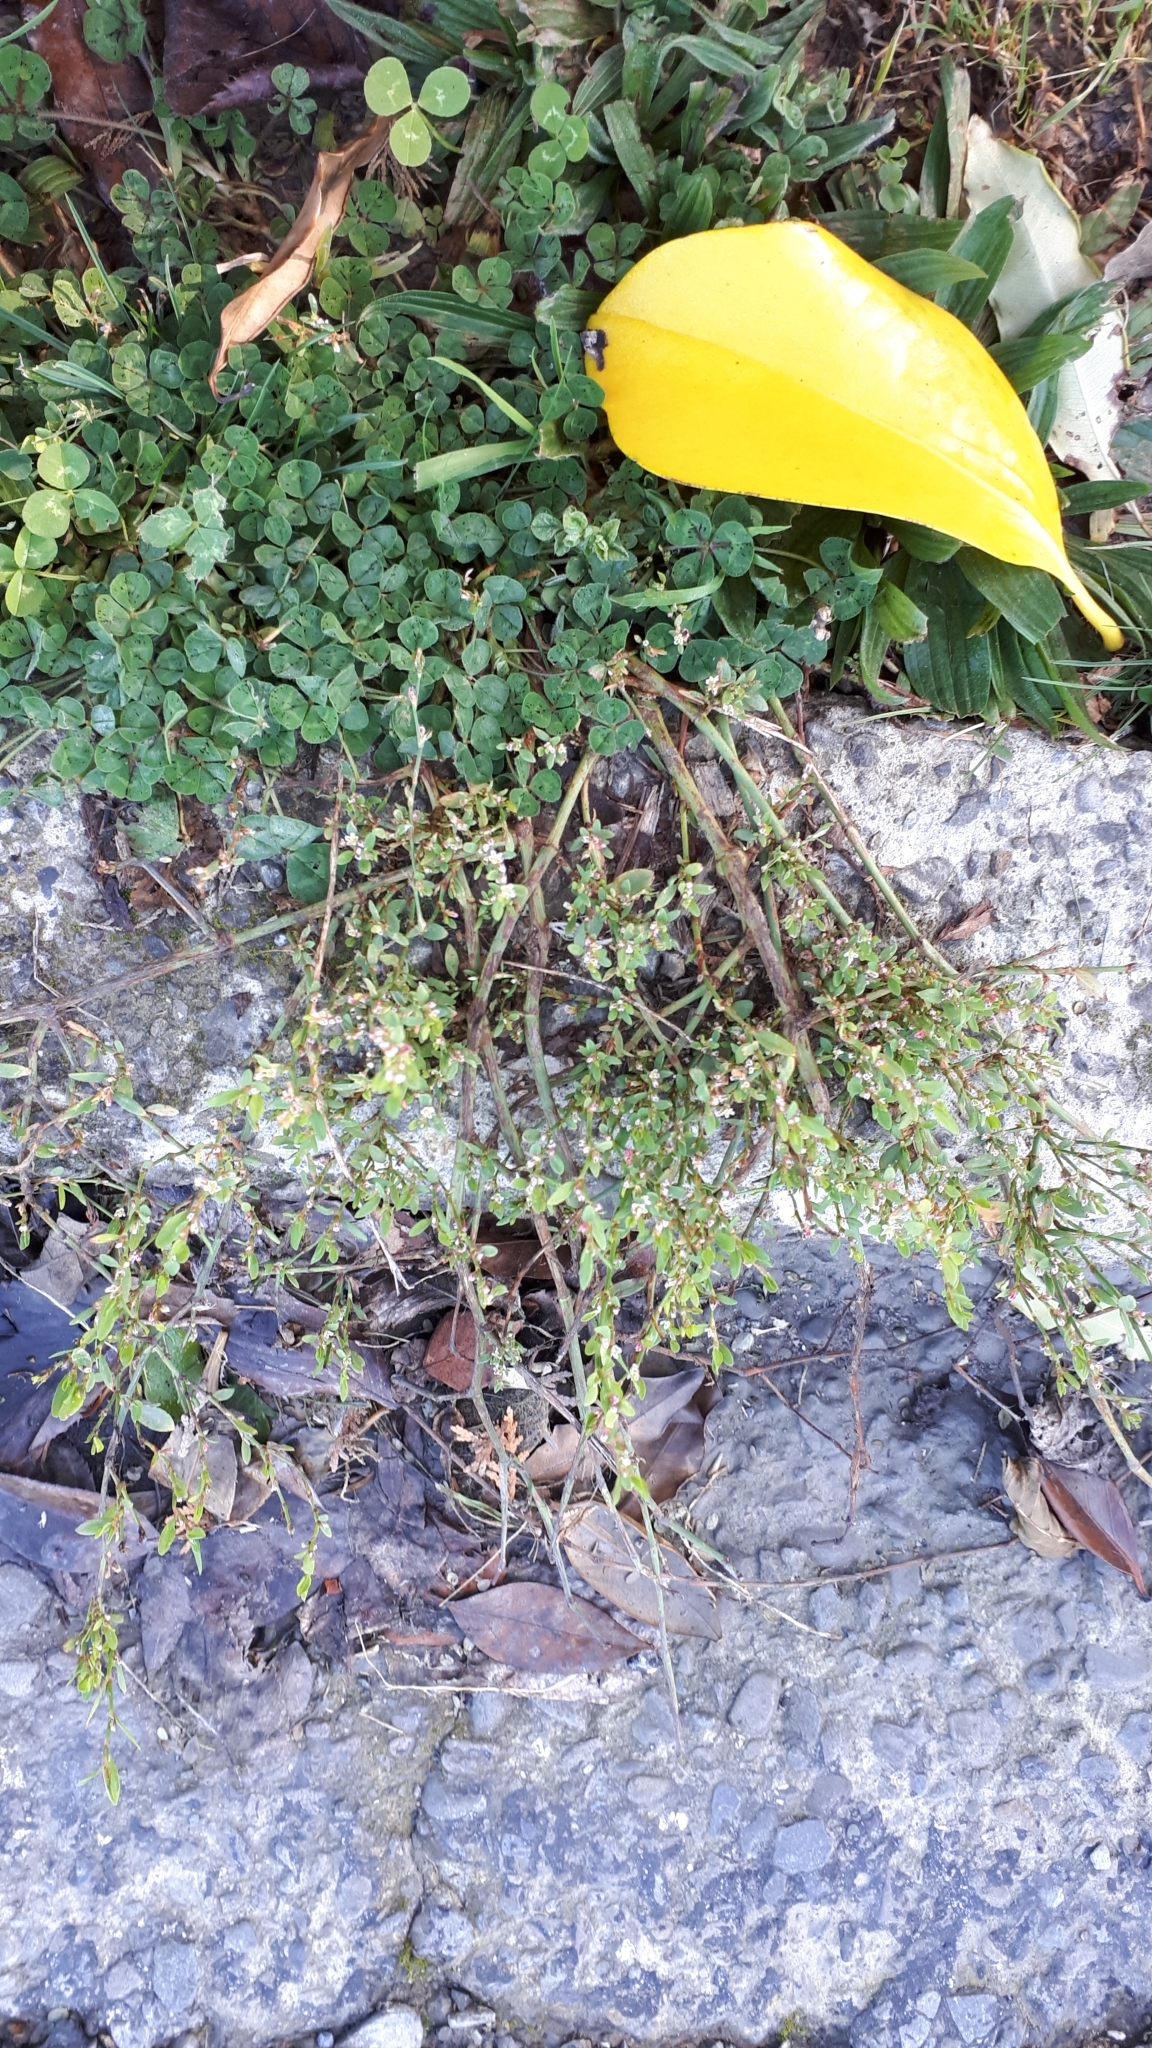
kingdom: Plantae
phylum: Tracheophyta
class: Magnoliopsida
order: Caryophyllales
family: Polygonaceae
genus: Polygonum
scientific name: Polygonum aviculare
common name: Prostrate knotweed
